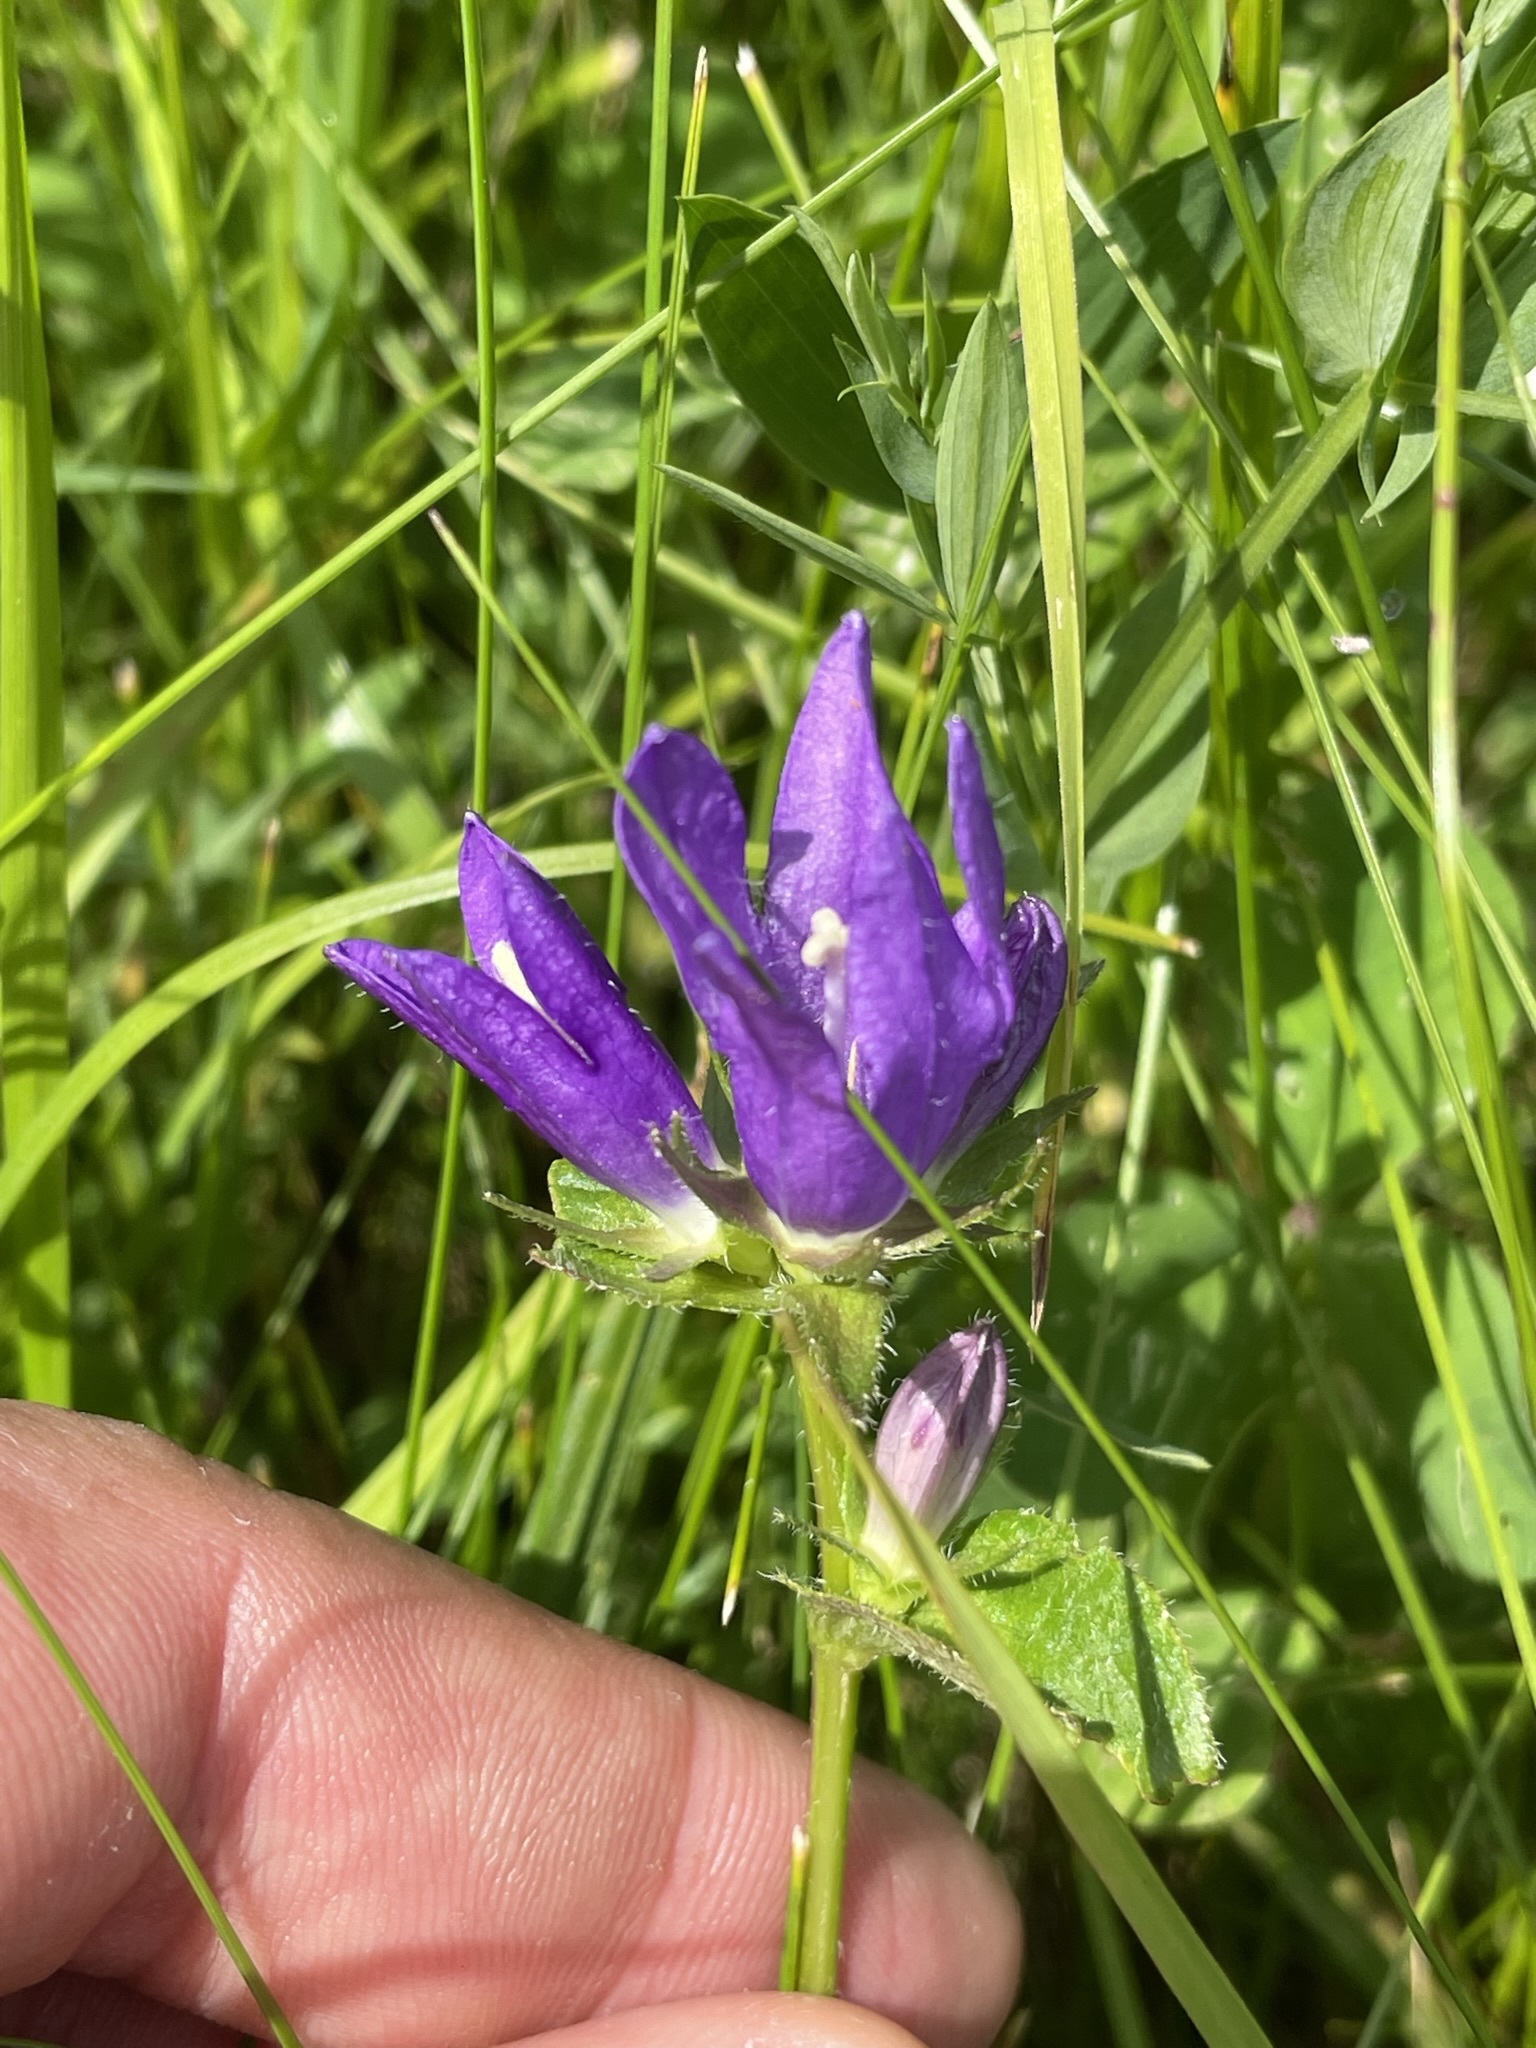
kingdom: Plantae
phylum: Tracheophyta
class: Magnoliopsida
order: Asterales
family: Campanulaceae
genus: Campanula
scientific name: Campanula glomerata
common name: Clustered bellflower
